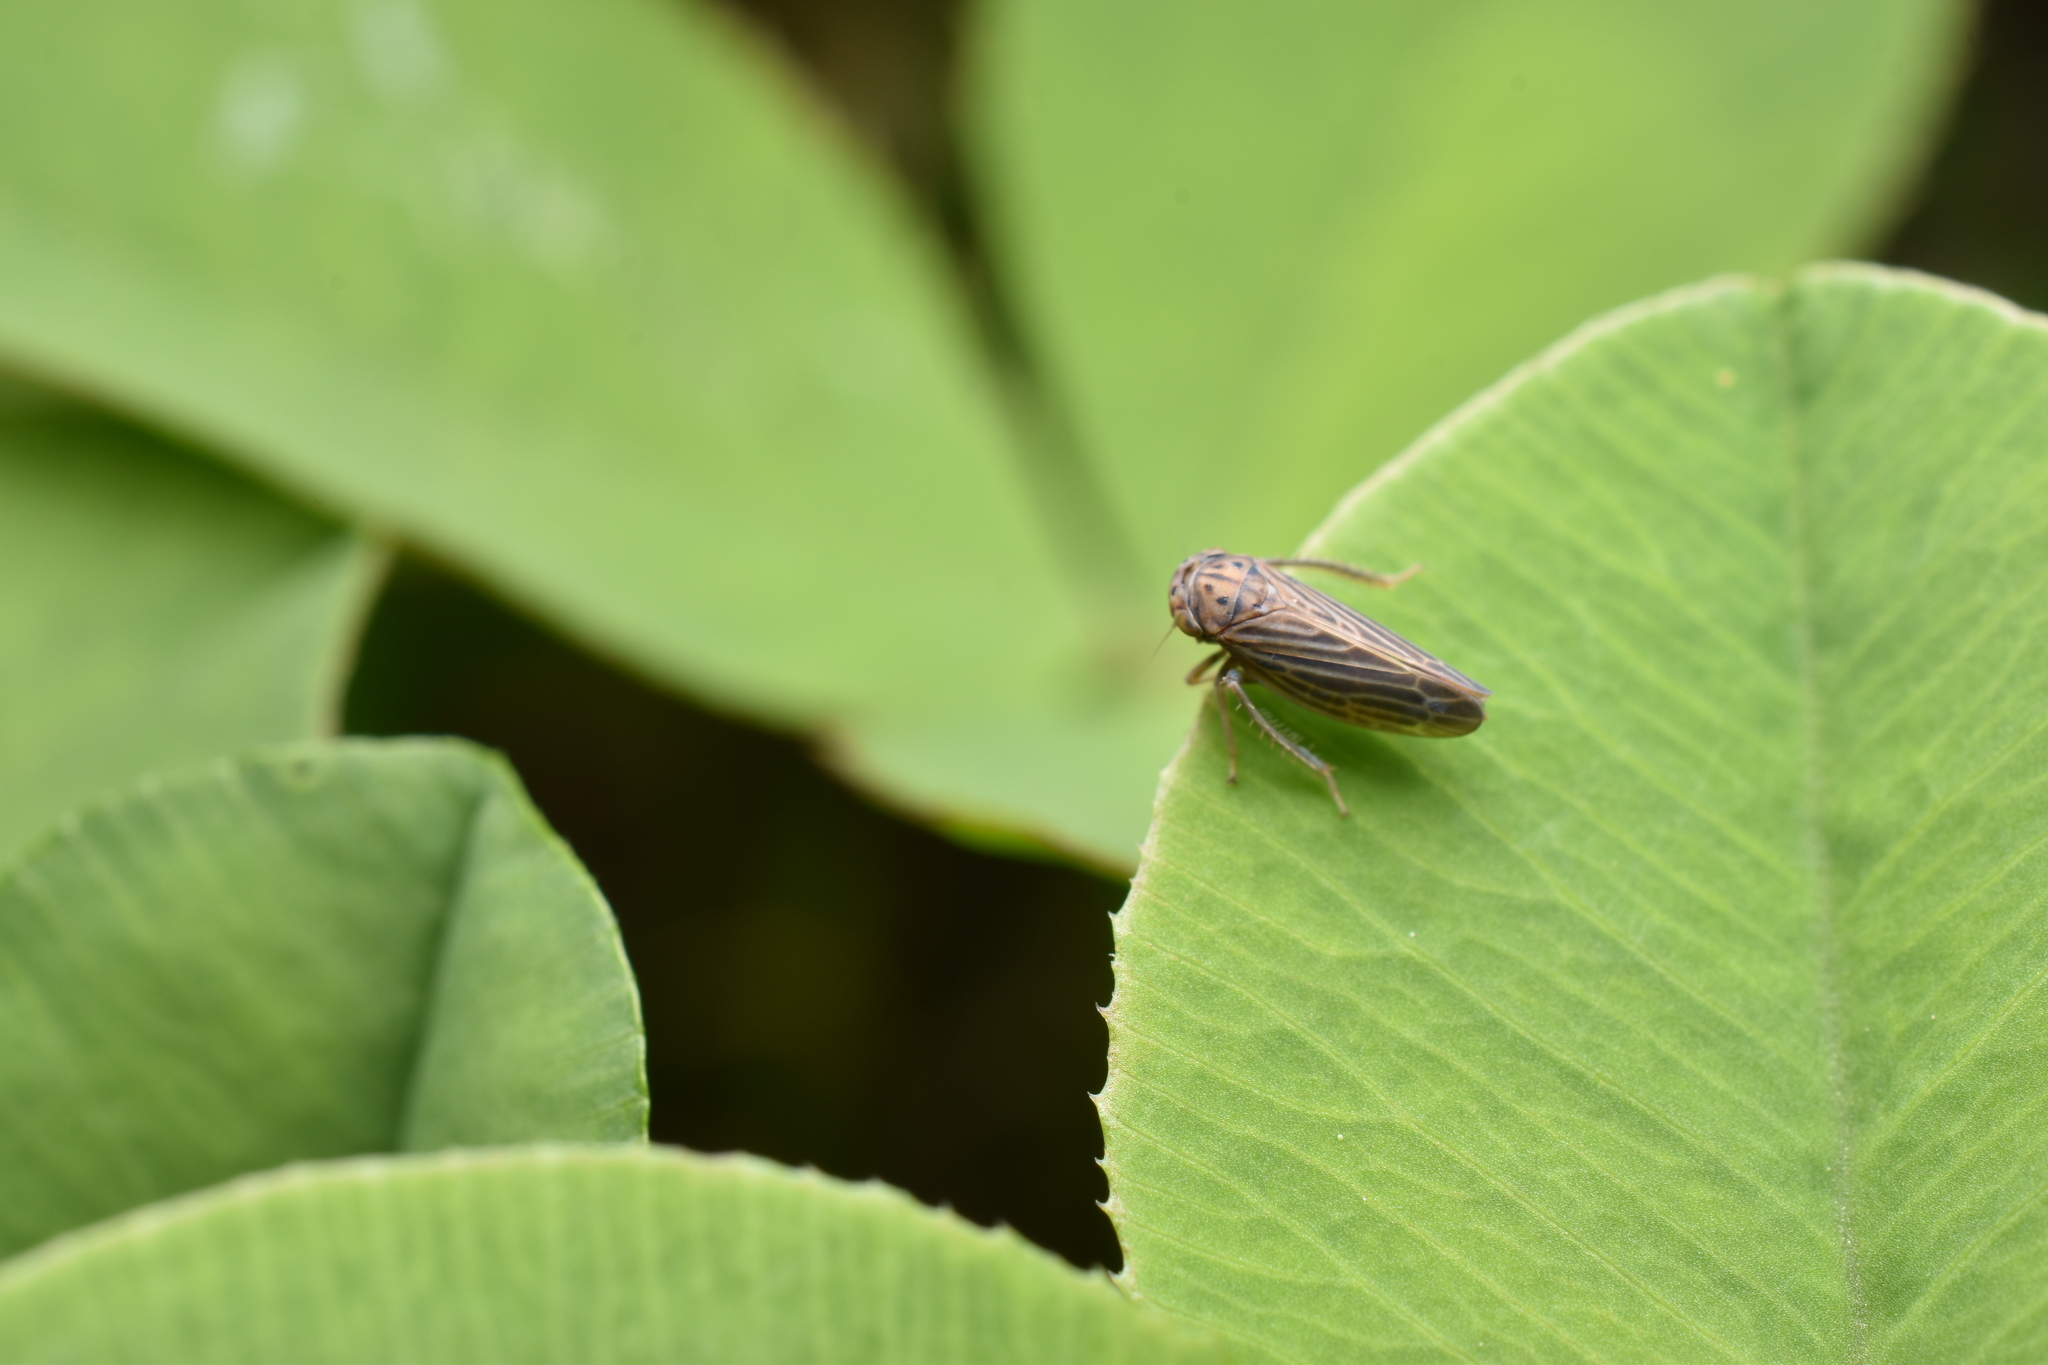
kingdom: Animalia
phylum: Arthropoda
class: Insecta
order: Hemiptera
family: Cicadellidae
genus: Agallia
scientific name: Agallia constricta
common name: The constricted leafhopper
